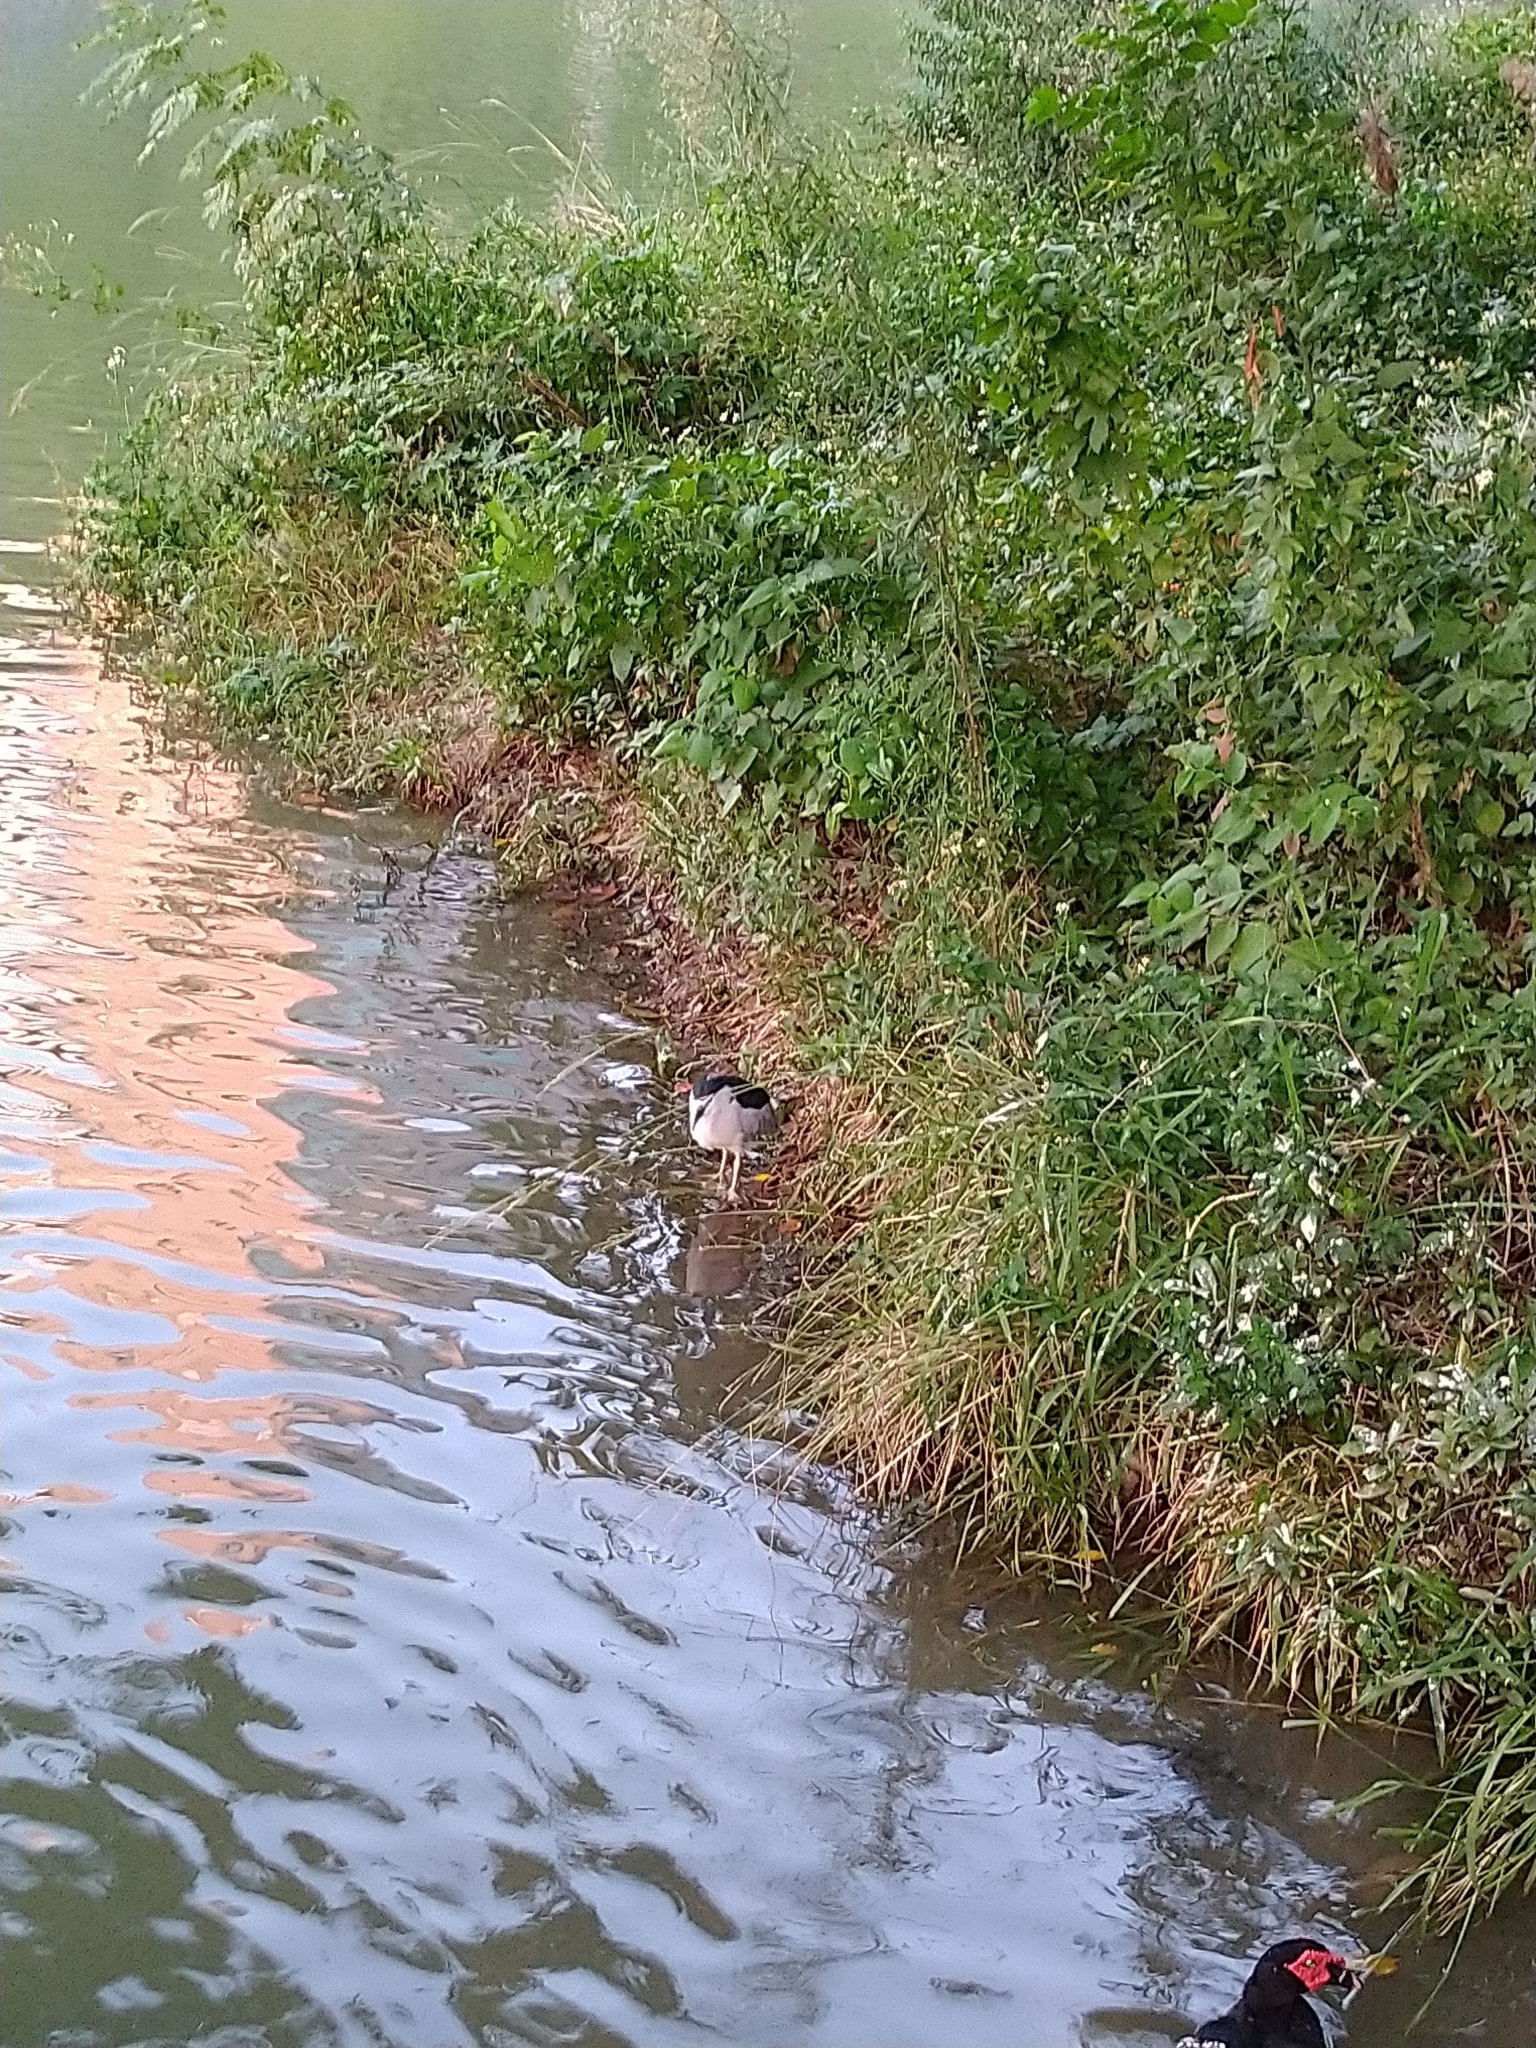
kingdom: Animalia
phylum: Chordata
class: Aves
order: Pelecaniformes
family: Ardeidae
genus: Nycticorax
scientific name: Nycticorax nycticorax
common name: Black-crowned night heron
